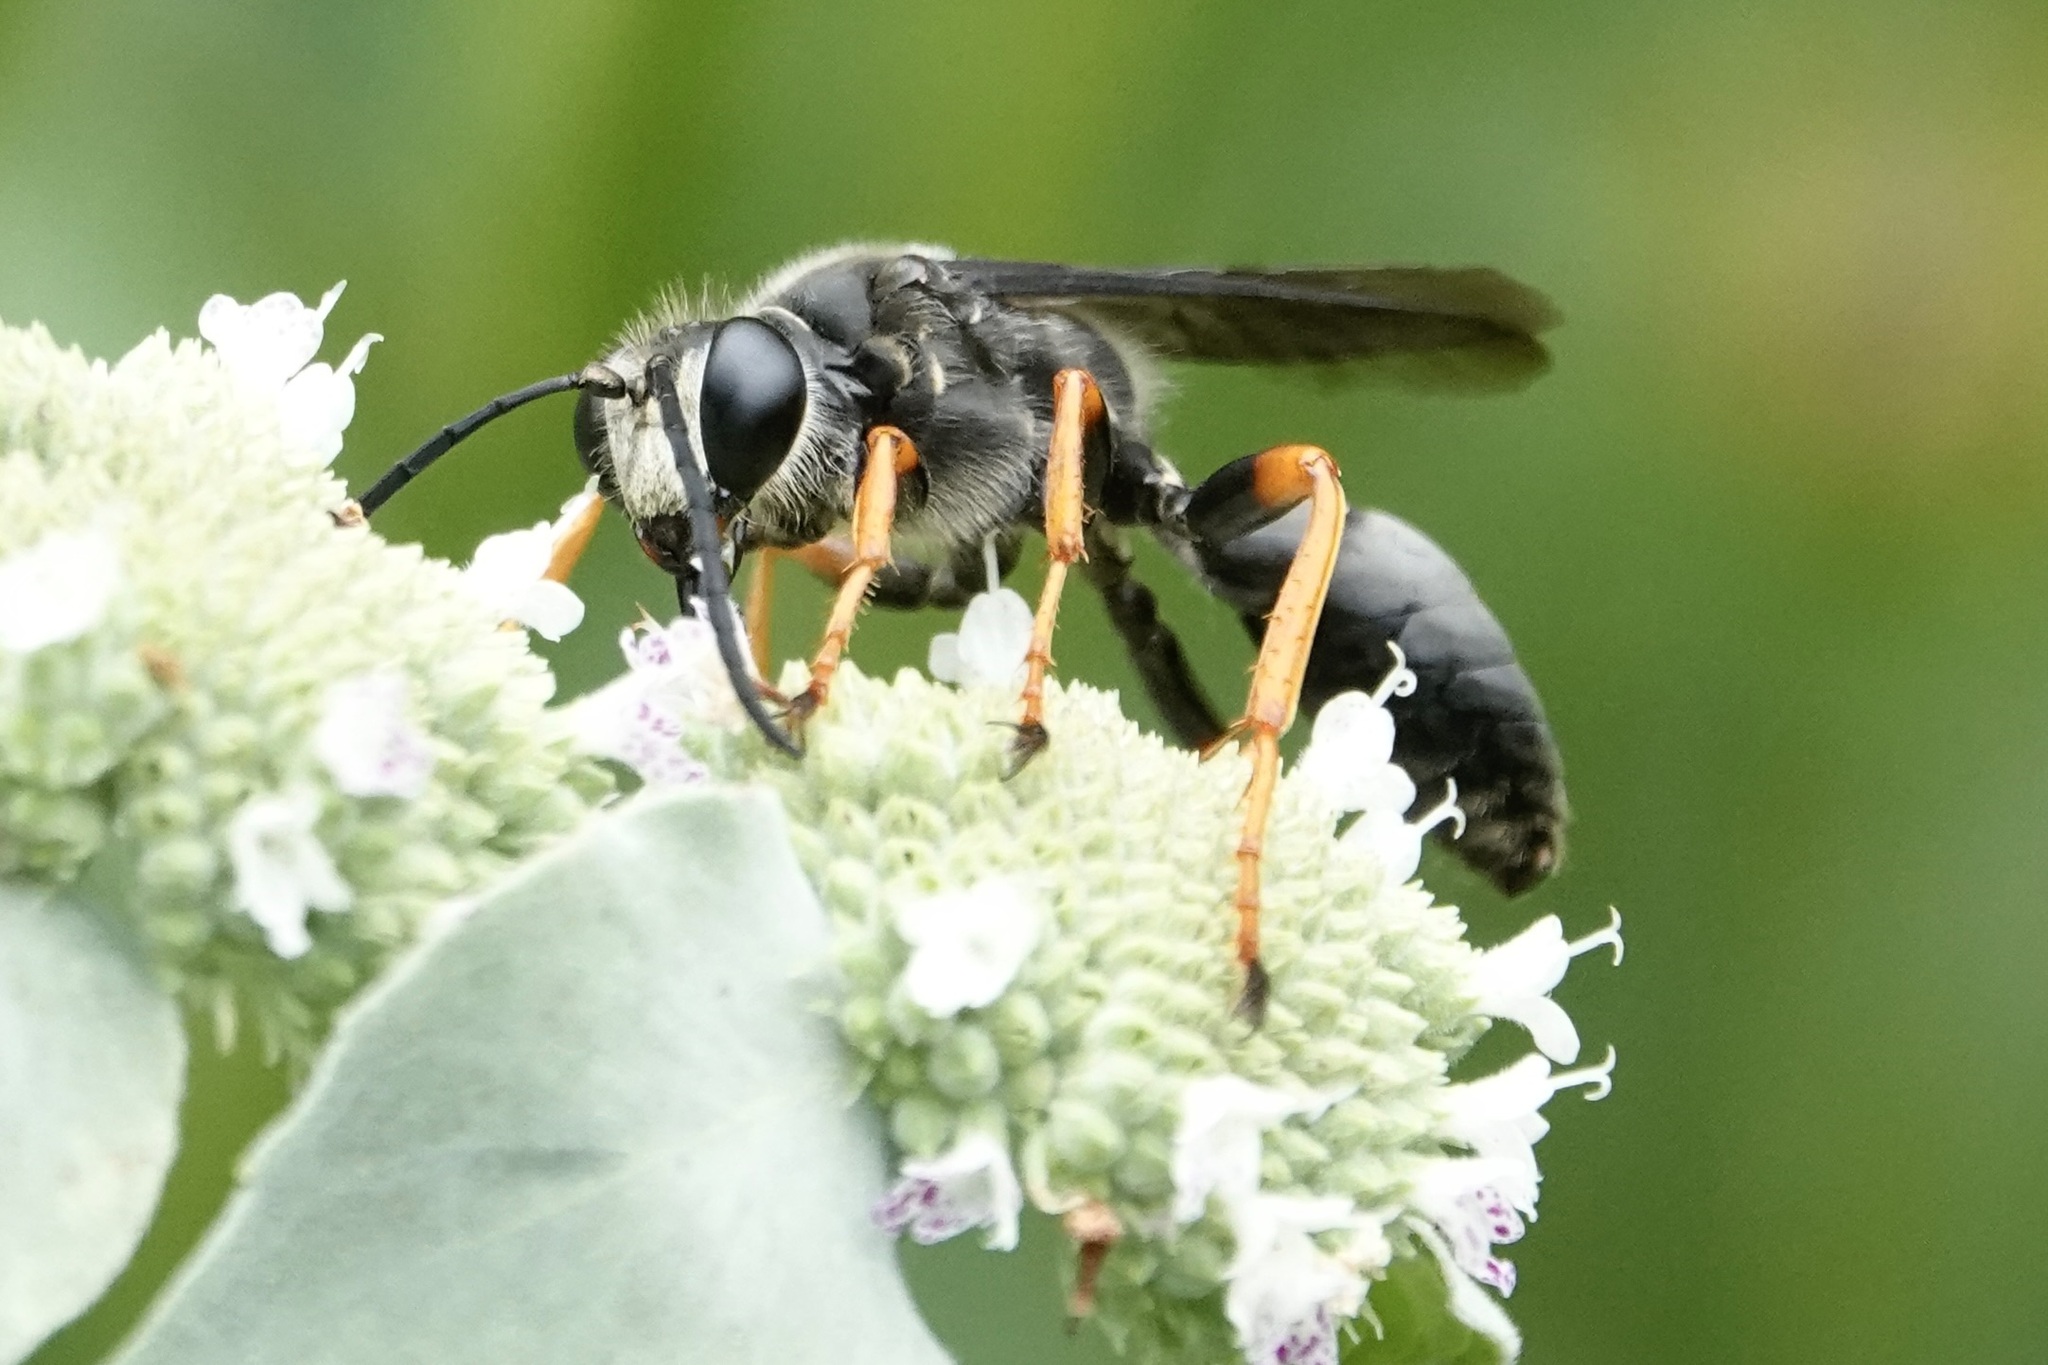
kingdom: Animalia
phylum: Arthropoda
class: Insecta
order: Hymenoptera
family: Sphecidae
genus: Sphex
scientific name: Sphex nudus
